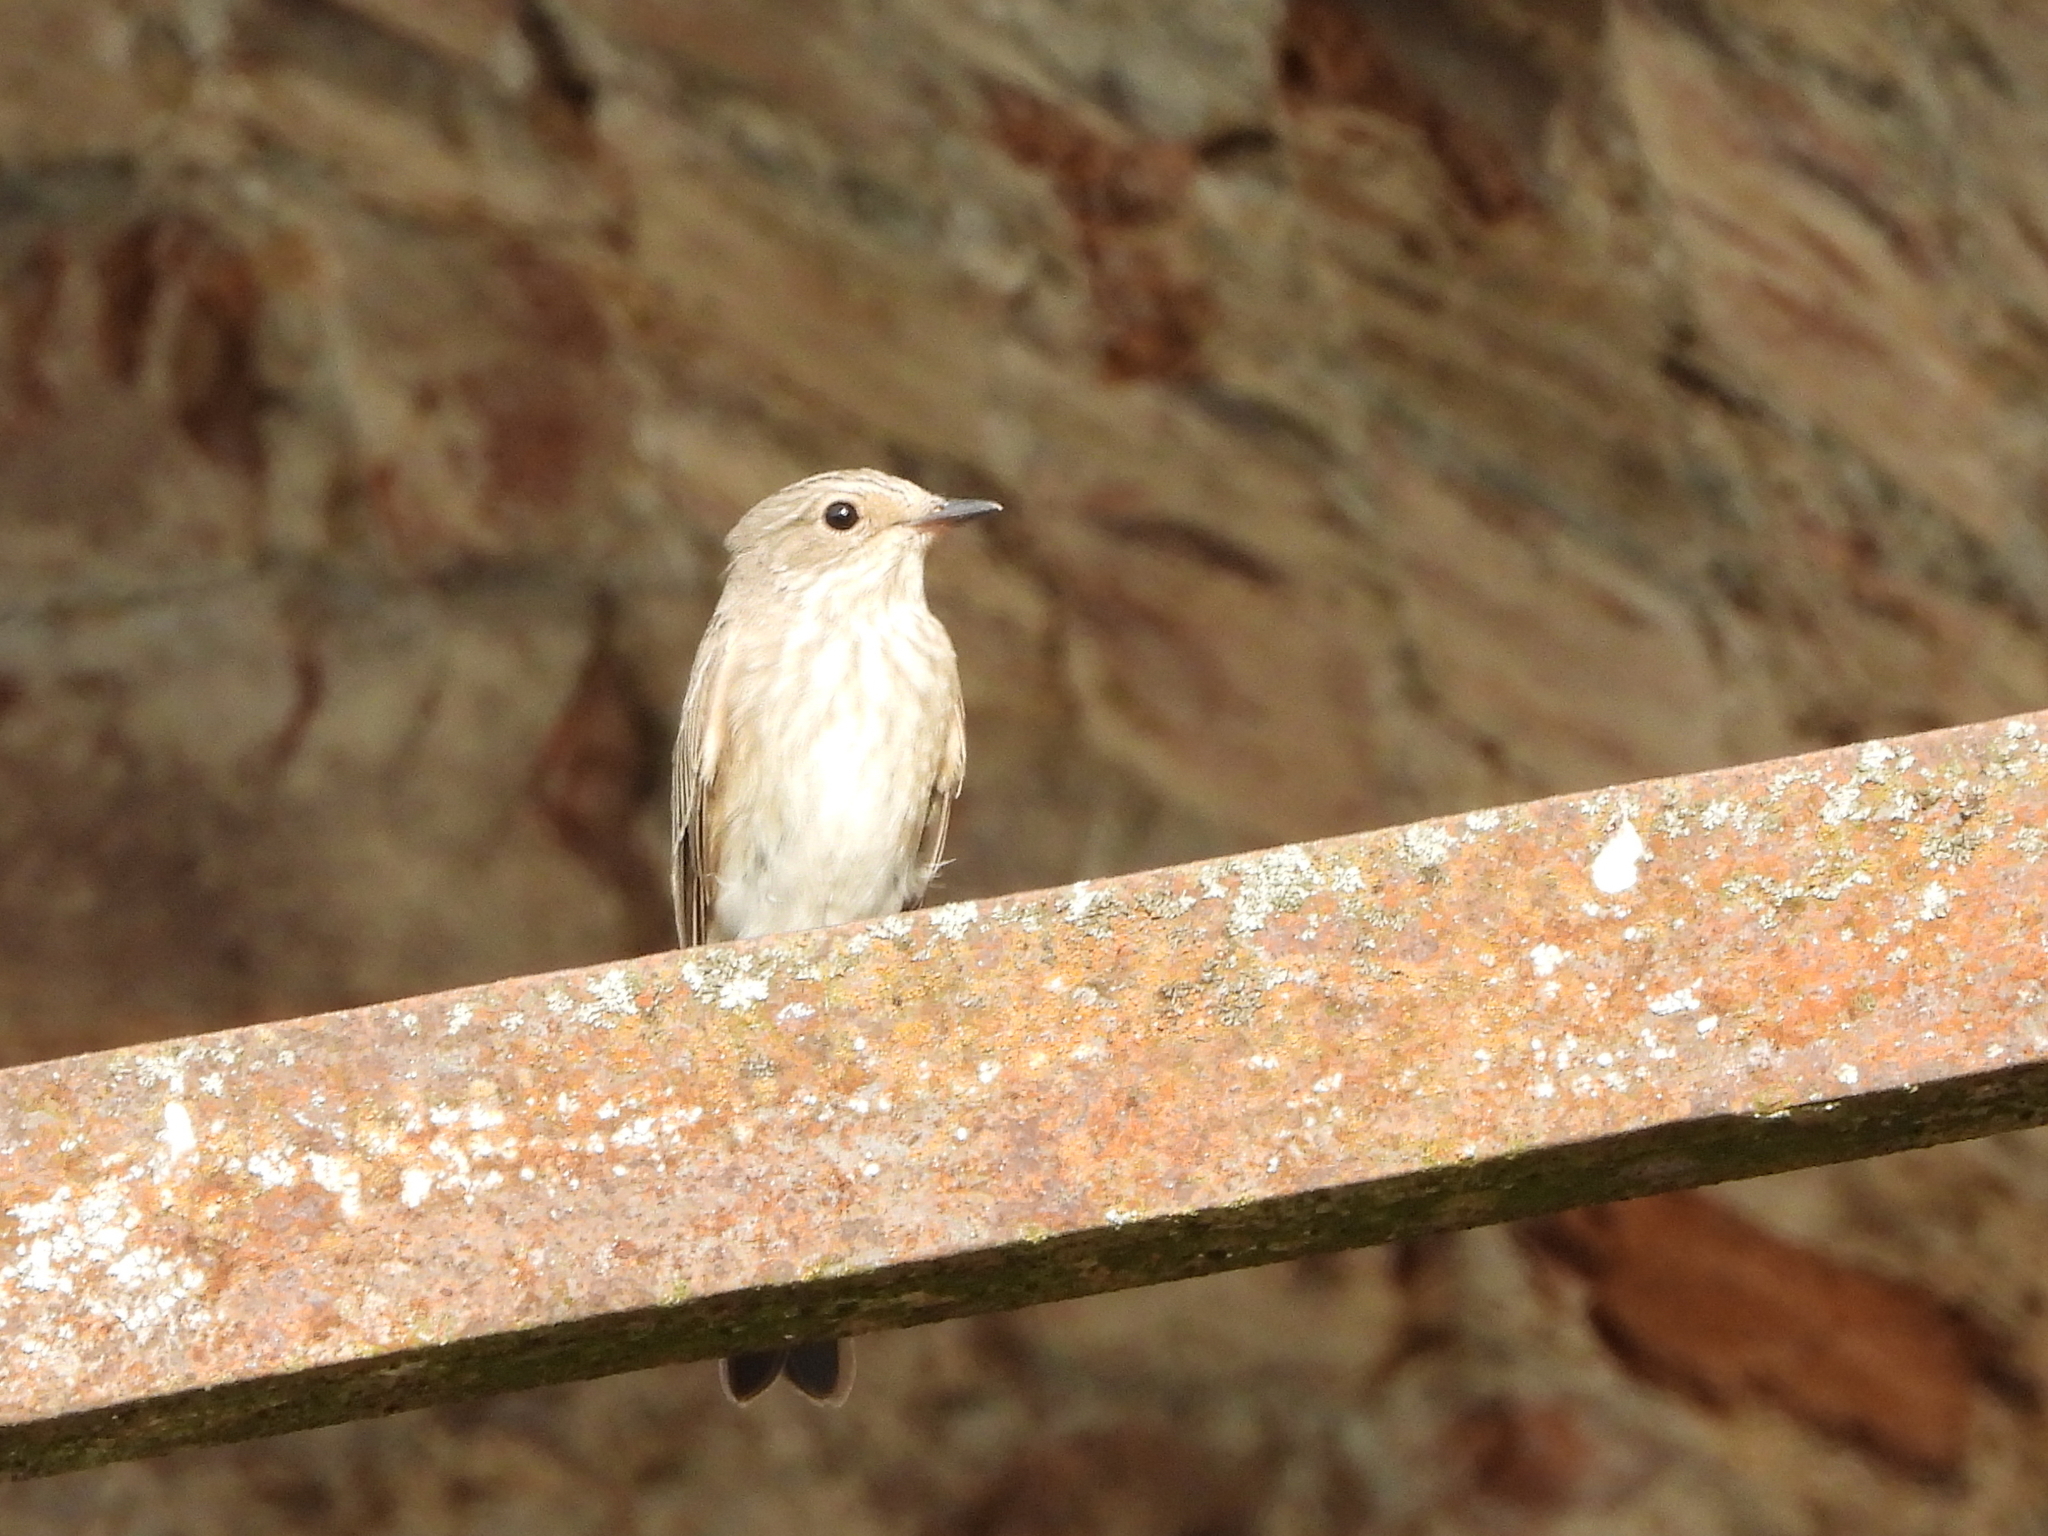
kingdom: Animalia
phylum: Chordata
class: Aves
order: Passeriformes
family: Muscicapidae
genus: Muscicapa
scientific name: Muscicapa striata
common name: Spotted flycatcher
